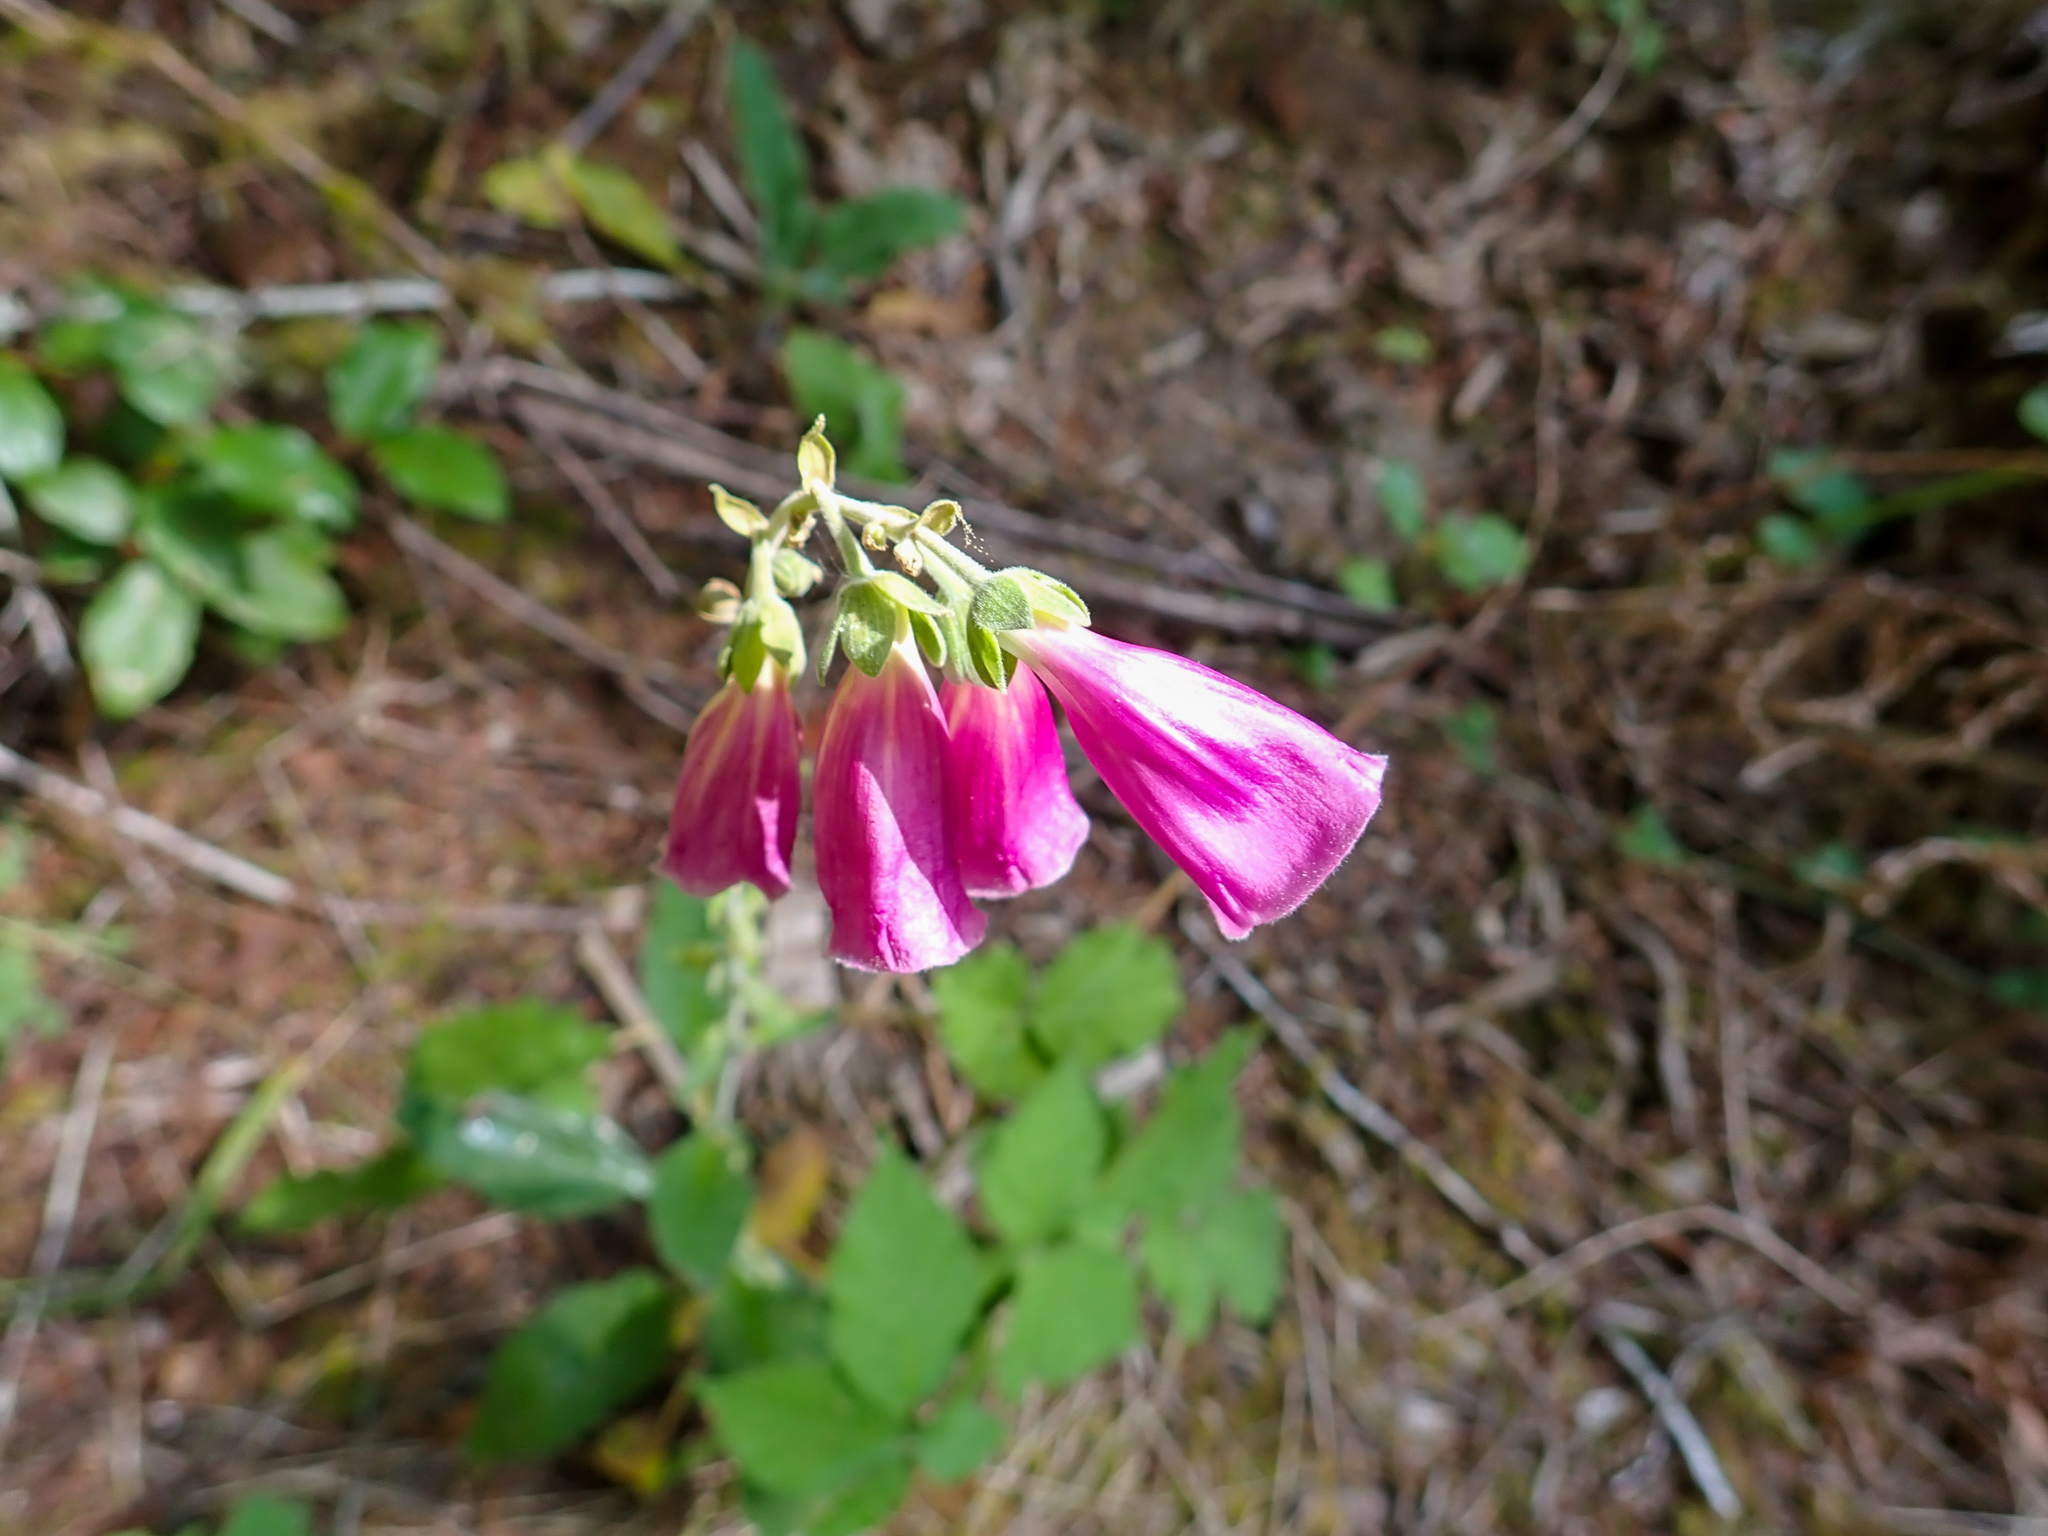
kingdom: Plantae
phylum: Tracheophyta
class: Magnoliopsida
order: Lamiales
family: Plantaginaceae
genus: Digitalis
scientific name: Digitalis purpurea
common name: Foxglove
